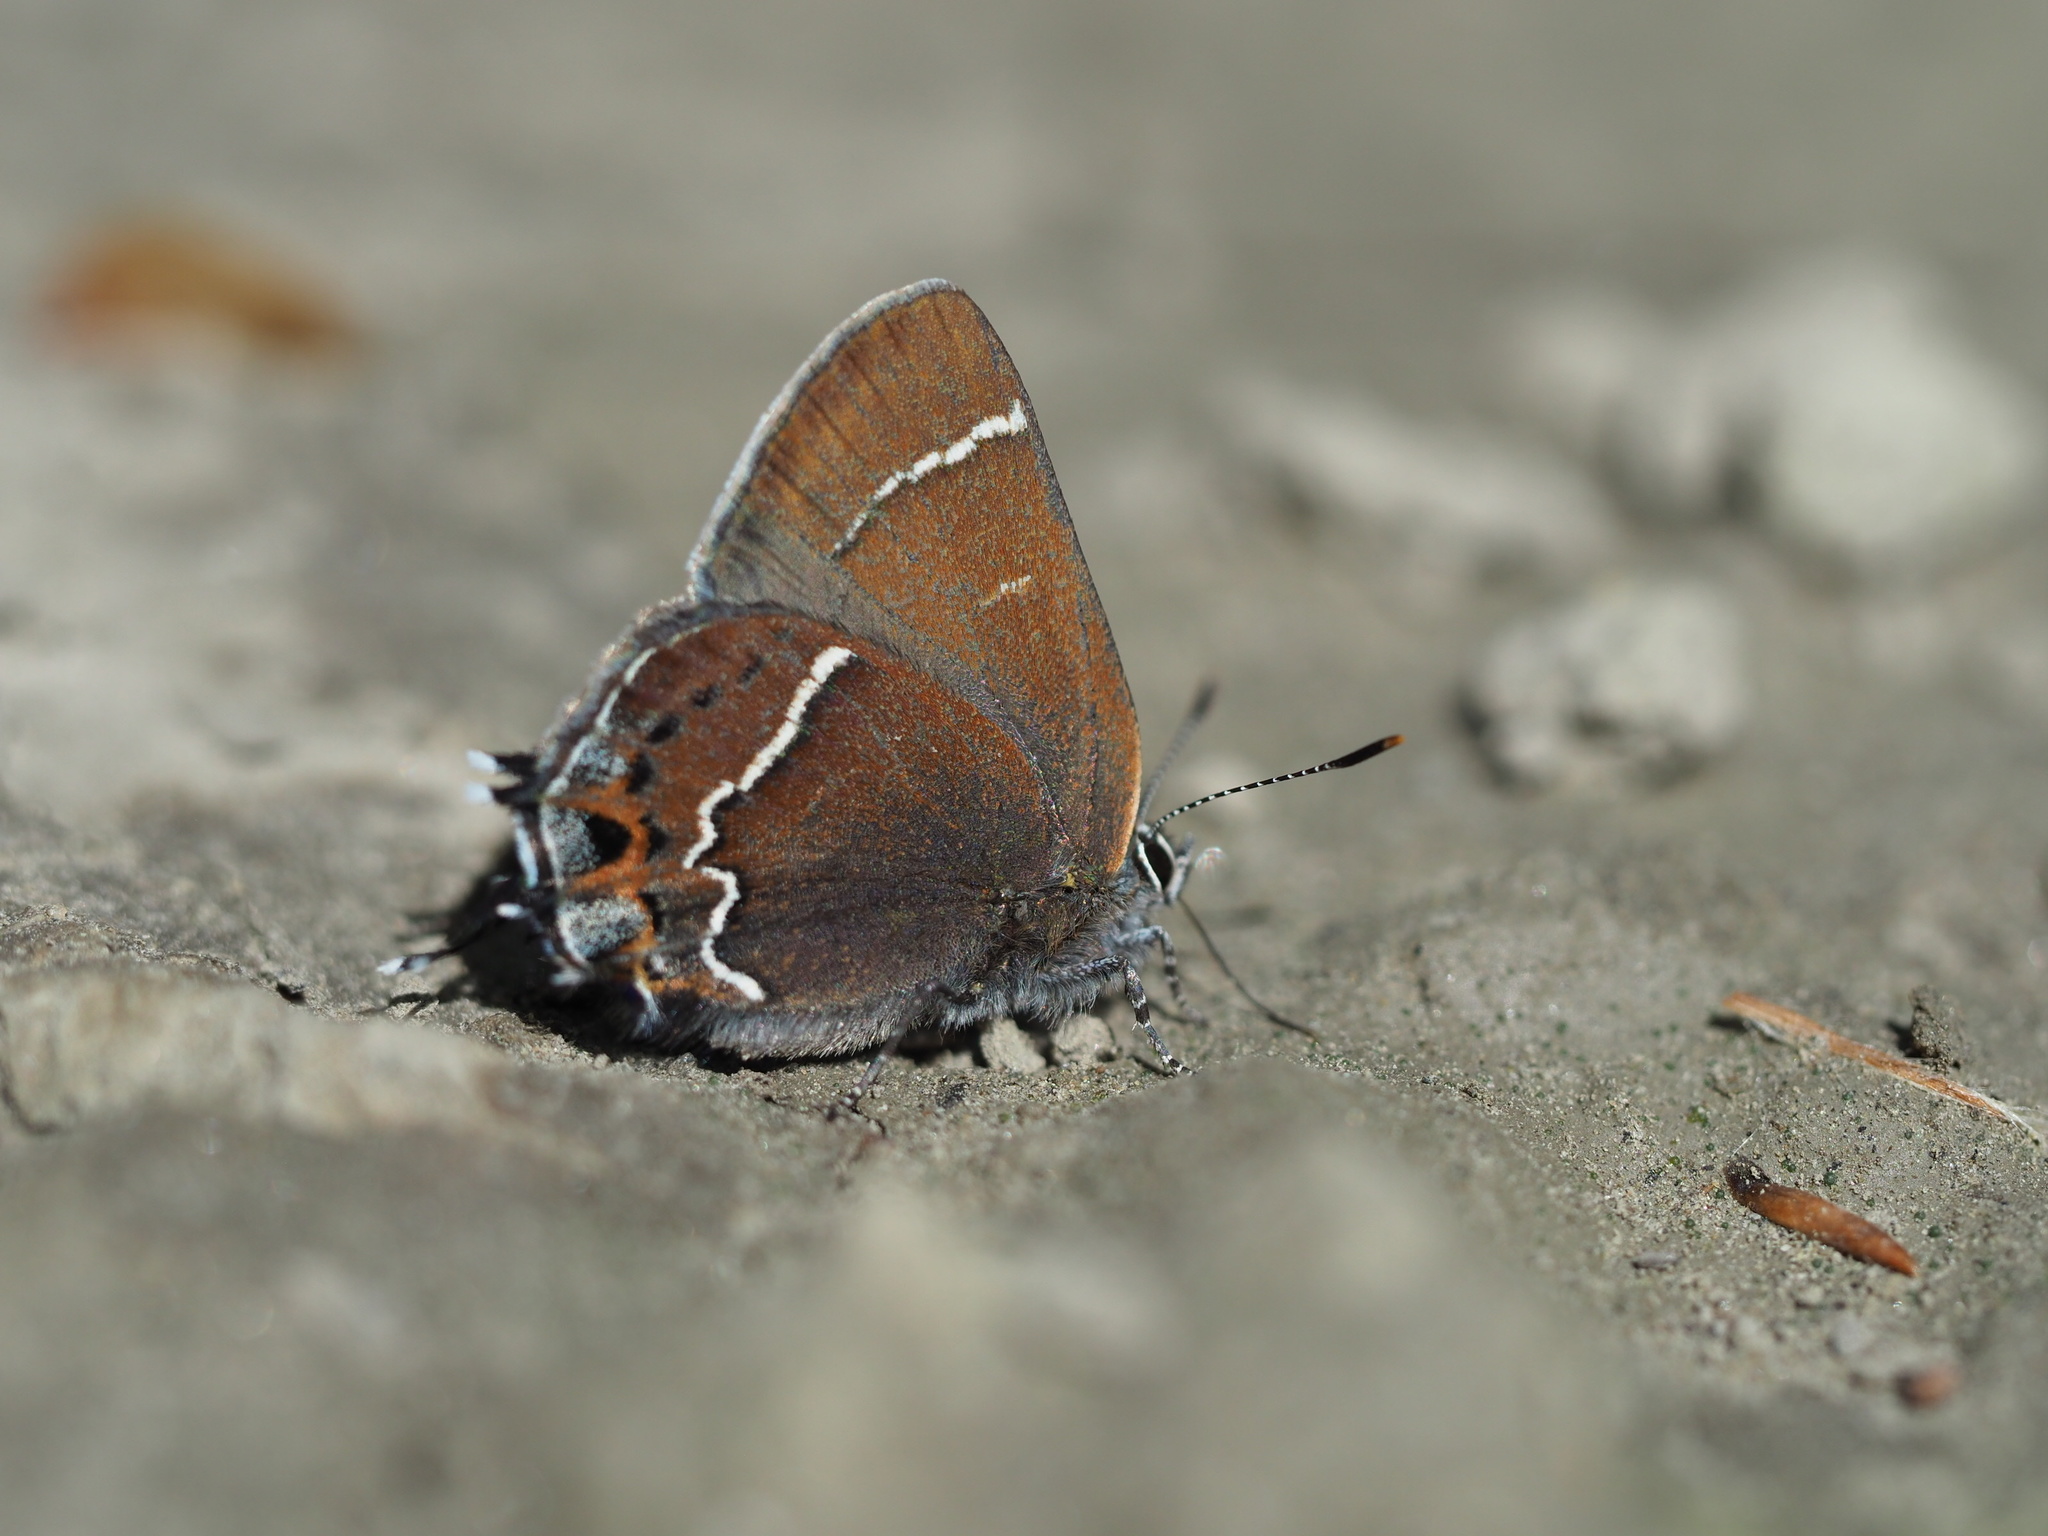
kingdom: Animalia
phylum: Arthropoda
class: Insecta
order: Lepidoptera
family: Lycaenidae
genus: Mitoura
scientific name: Mitoura spinetorum
